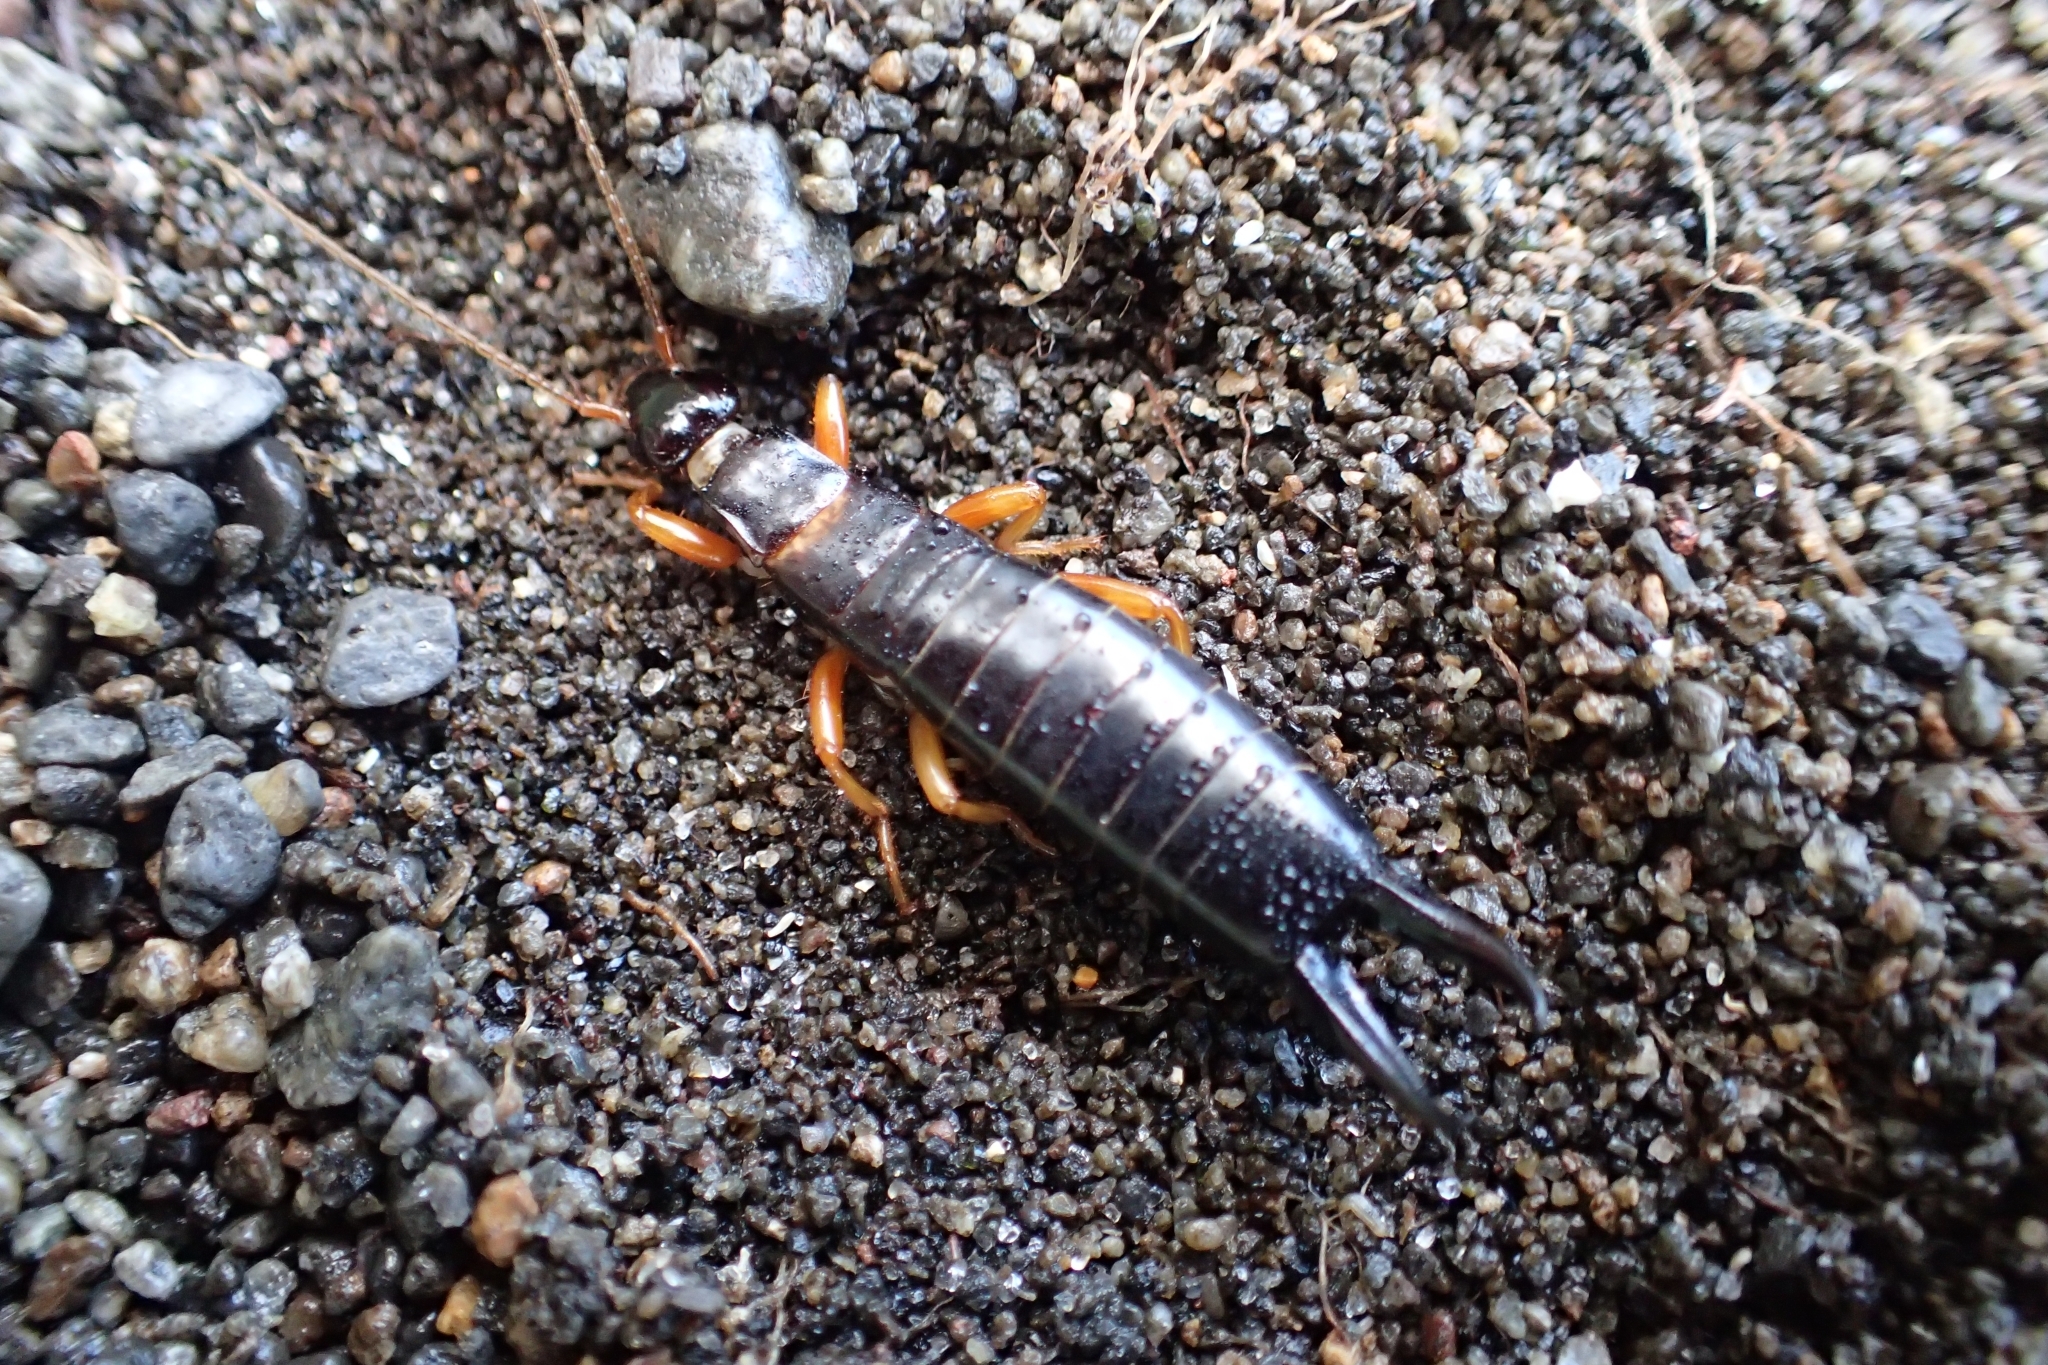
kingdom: Animalia
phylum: Arthropoda
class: Insecta
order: Dermaptera
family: Anisolabididae
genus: Anisolabis
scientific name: Anisolabis littorea
